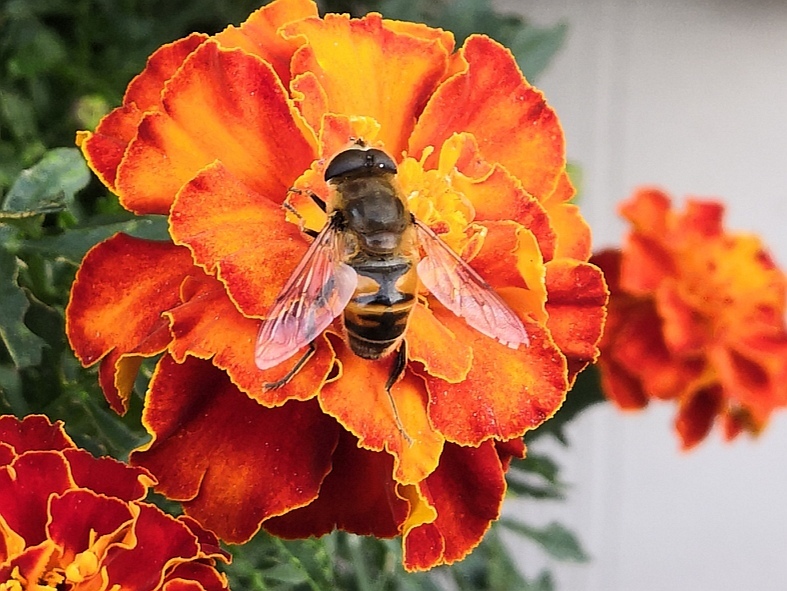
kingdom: Animalia
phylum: Arthropoda
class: Insecta
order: Diptera
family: Syrphidae
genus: Eristalis
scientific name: Eristalis tenax
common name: Drone fly
